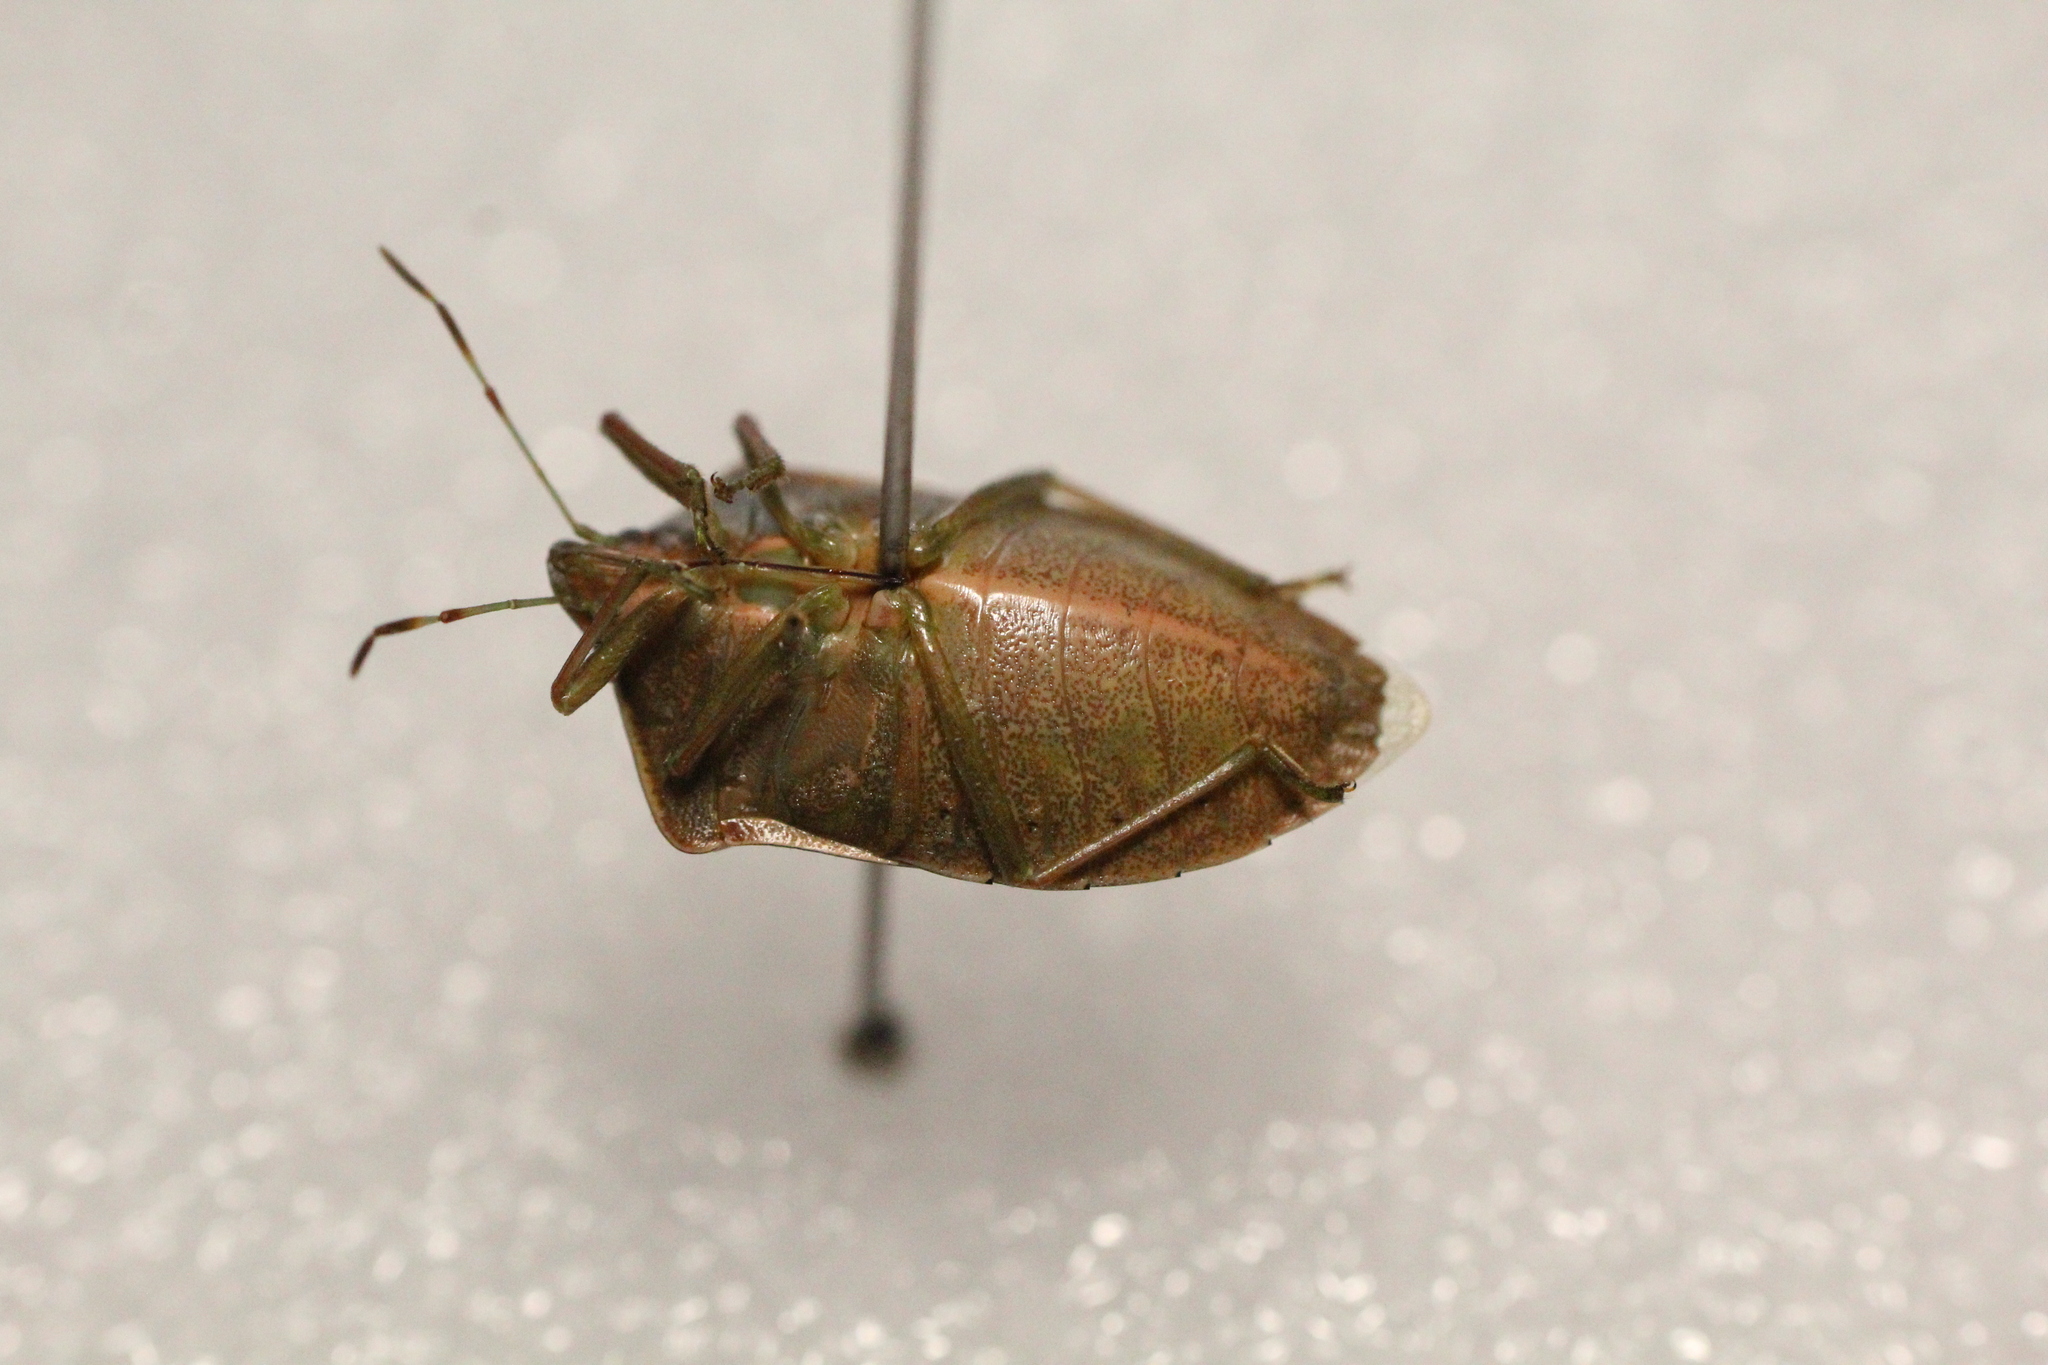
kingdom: Animalia
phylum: Arthropoda
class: Insecta
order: Hemiptera
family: Pentatomidae
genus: Nezara
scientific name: Nezara viridula
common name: Southern green stink bug
